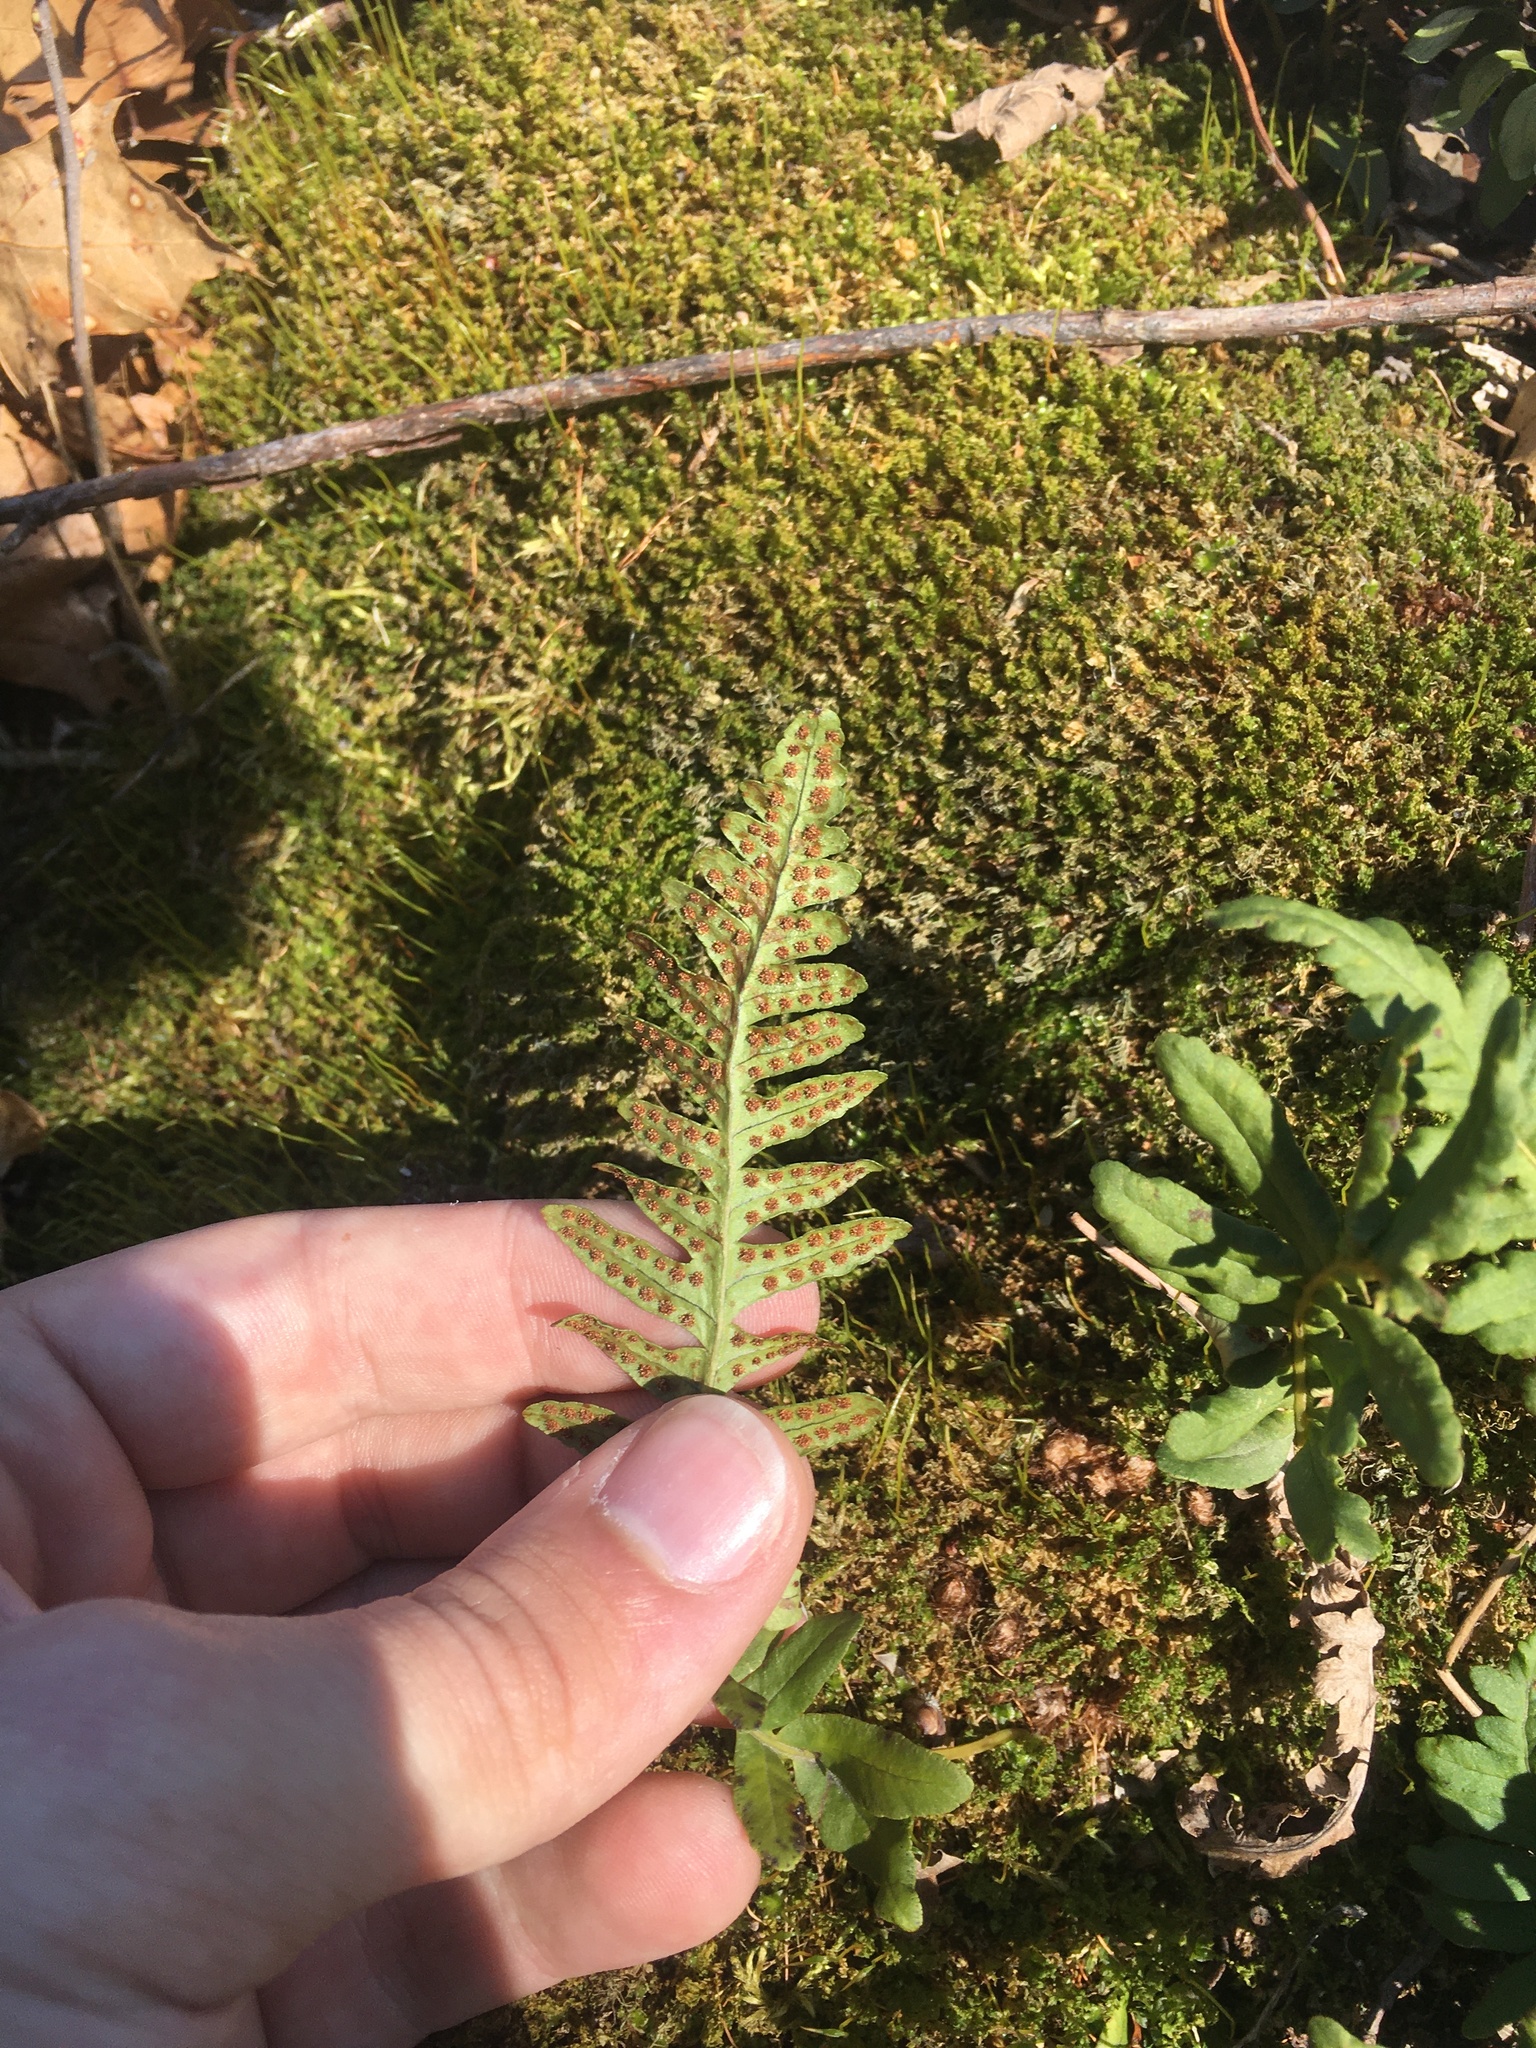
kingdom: Plantae
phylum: Tracheophyta
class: Polypodiopsida
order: Polypodiales
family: Polypodiaceae
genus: Polypodium
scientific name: Polypodium virginianum
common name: American wall fern
